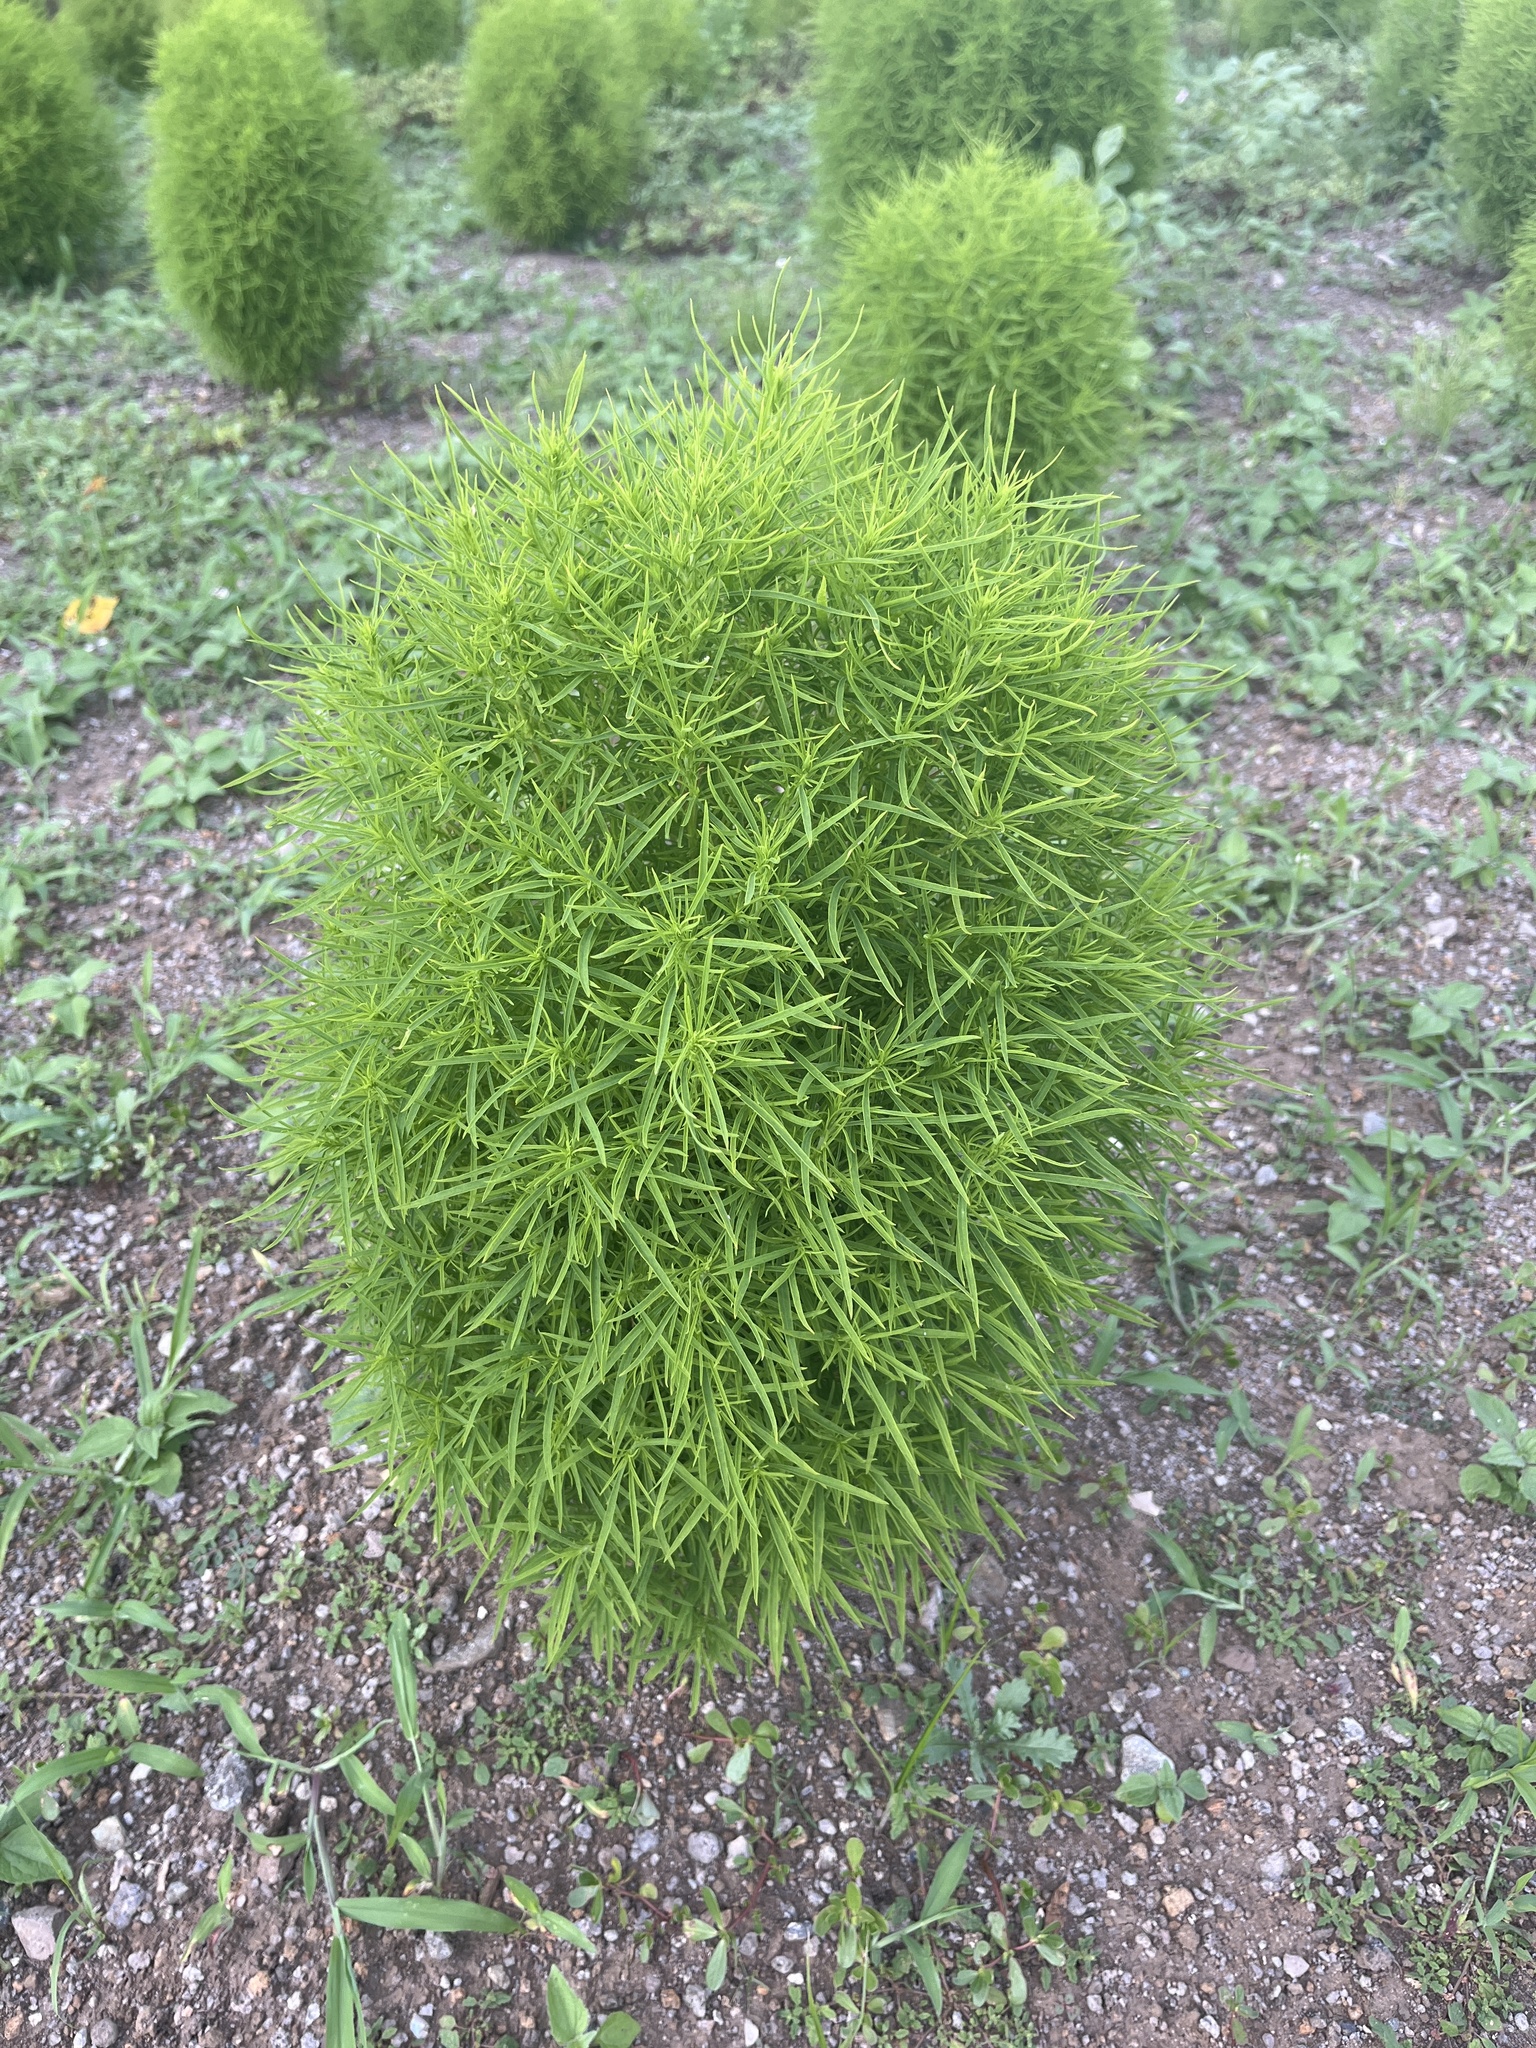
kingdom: Plantae
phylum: Tracheophyta
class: Magnoliopsida
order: Caryophyllales
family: Amaranthaceae
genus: Bassia
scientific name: Bassia scoparia
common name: Belvedere
